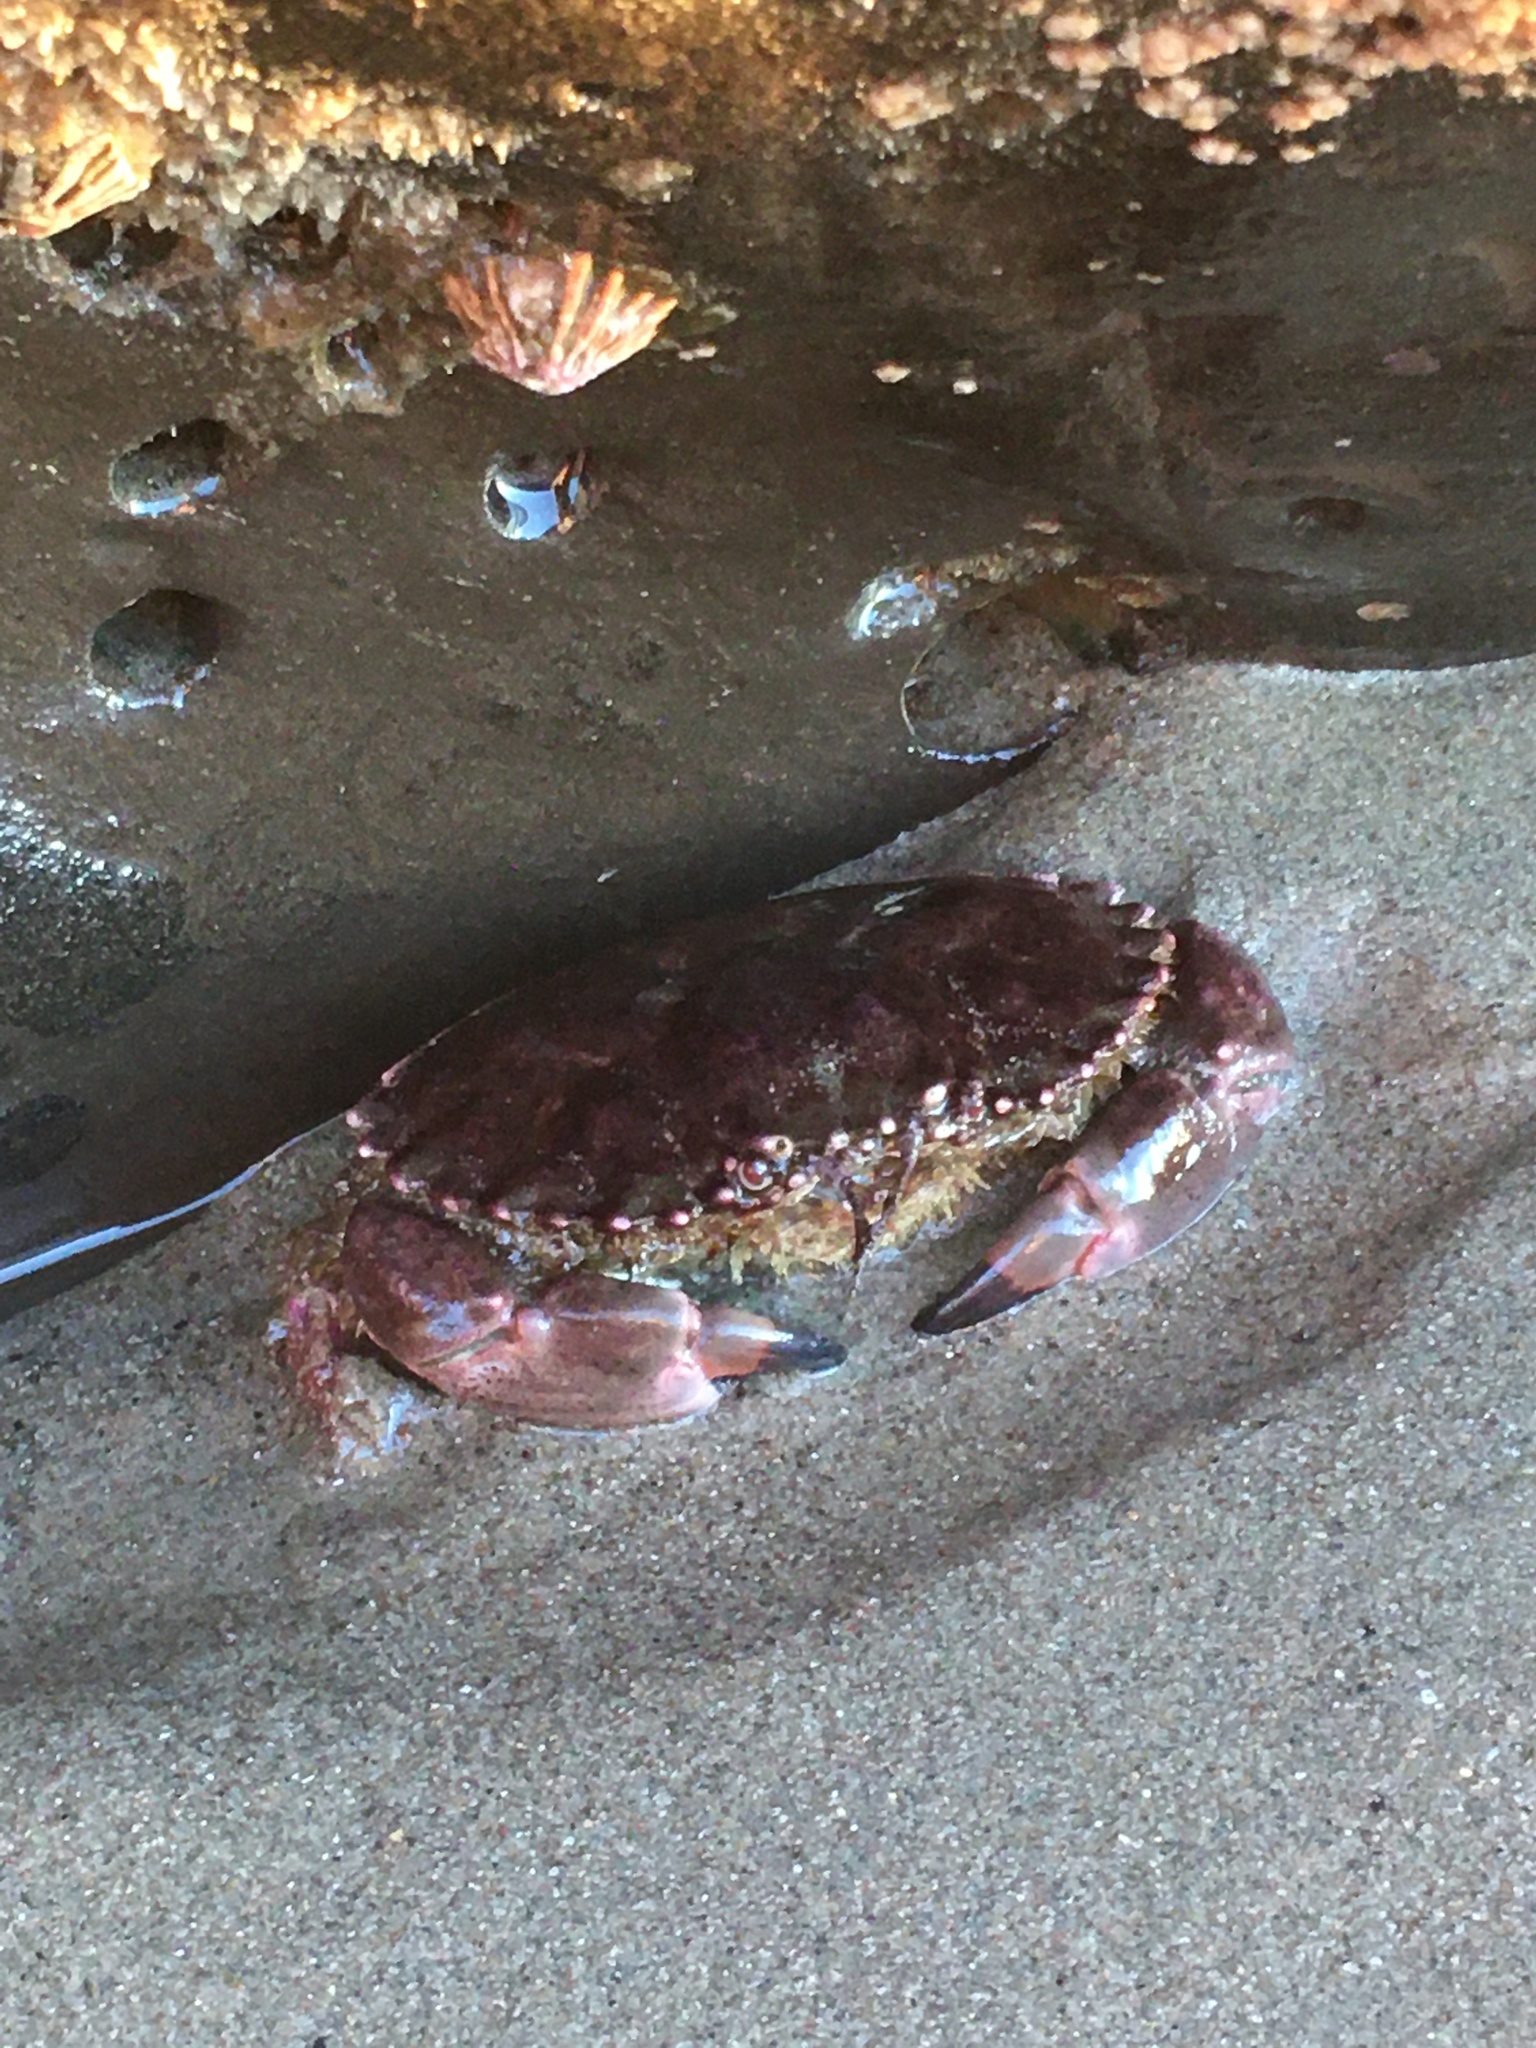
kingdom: Animalia
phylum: Arthropoda
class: Malacostraca
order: Decapoda
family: Cancridae
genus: Romaleon
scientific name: Romaleon antennarium
